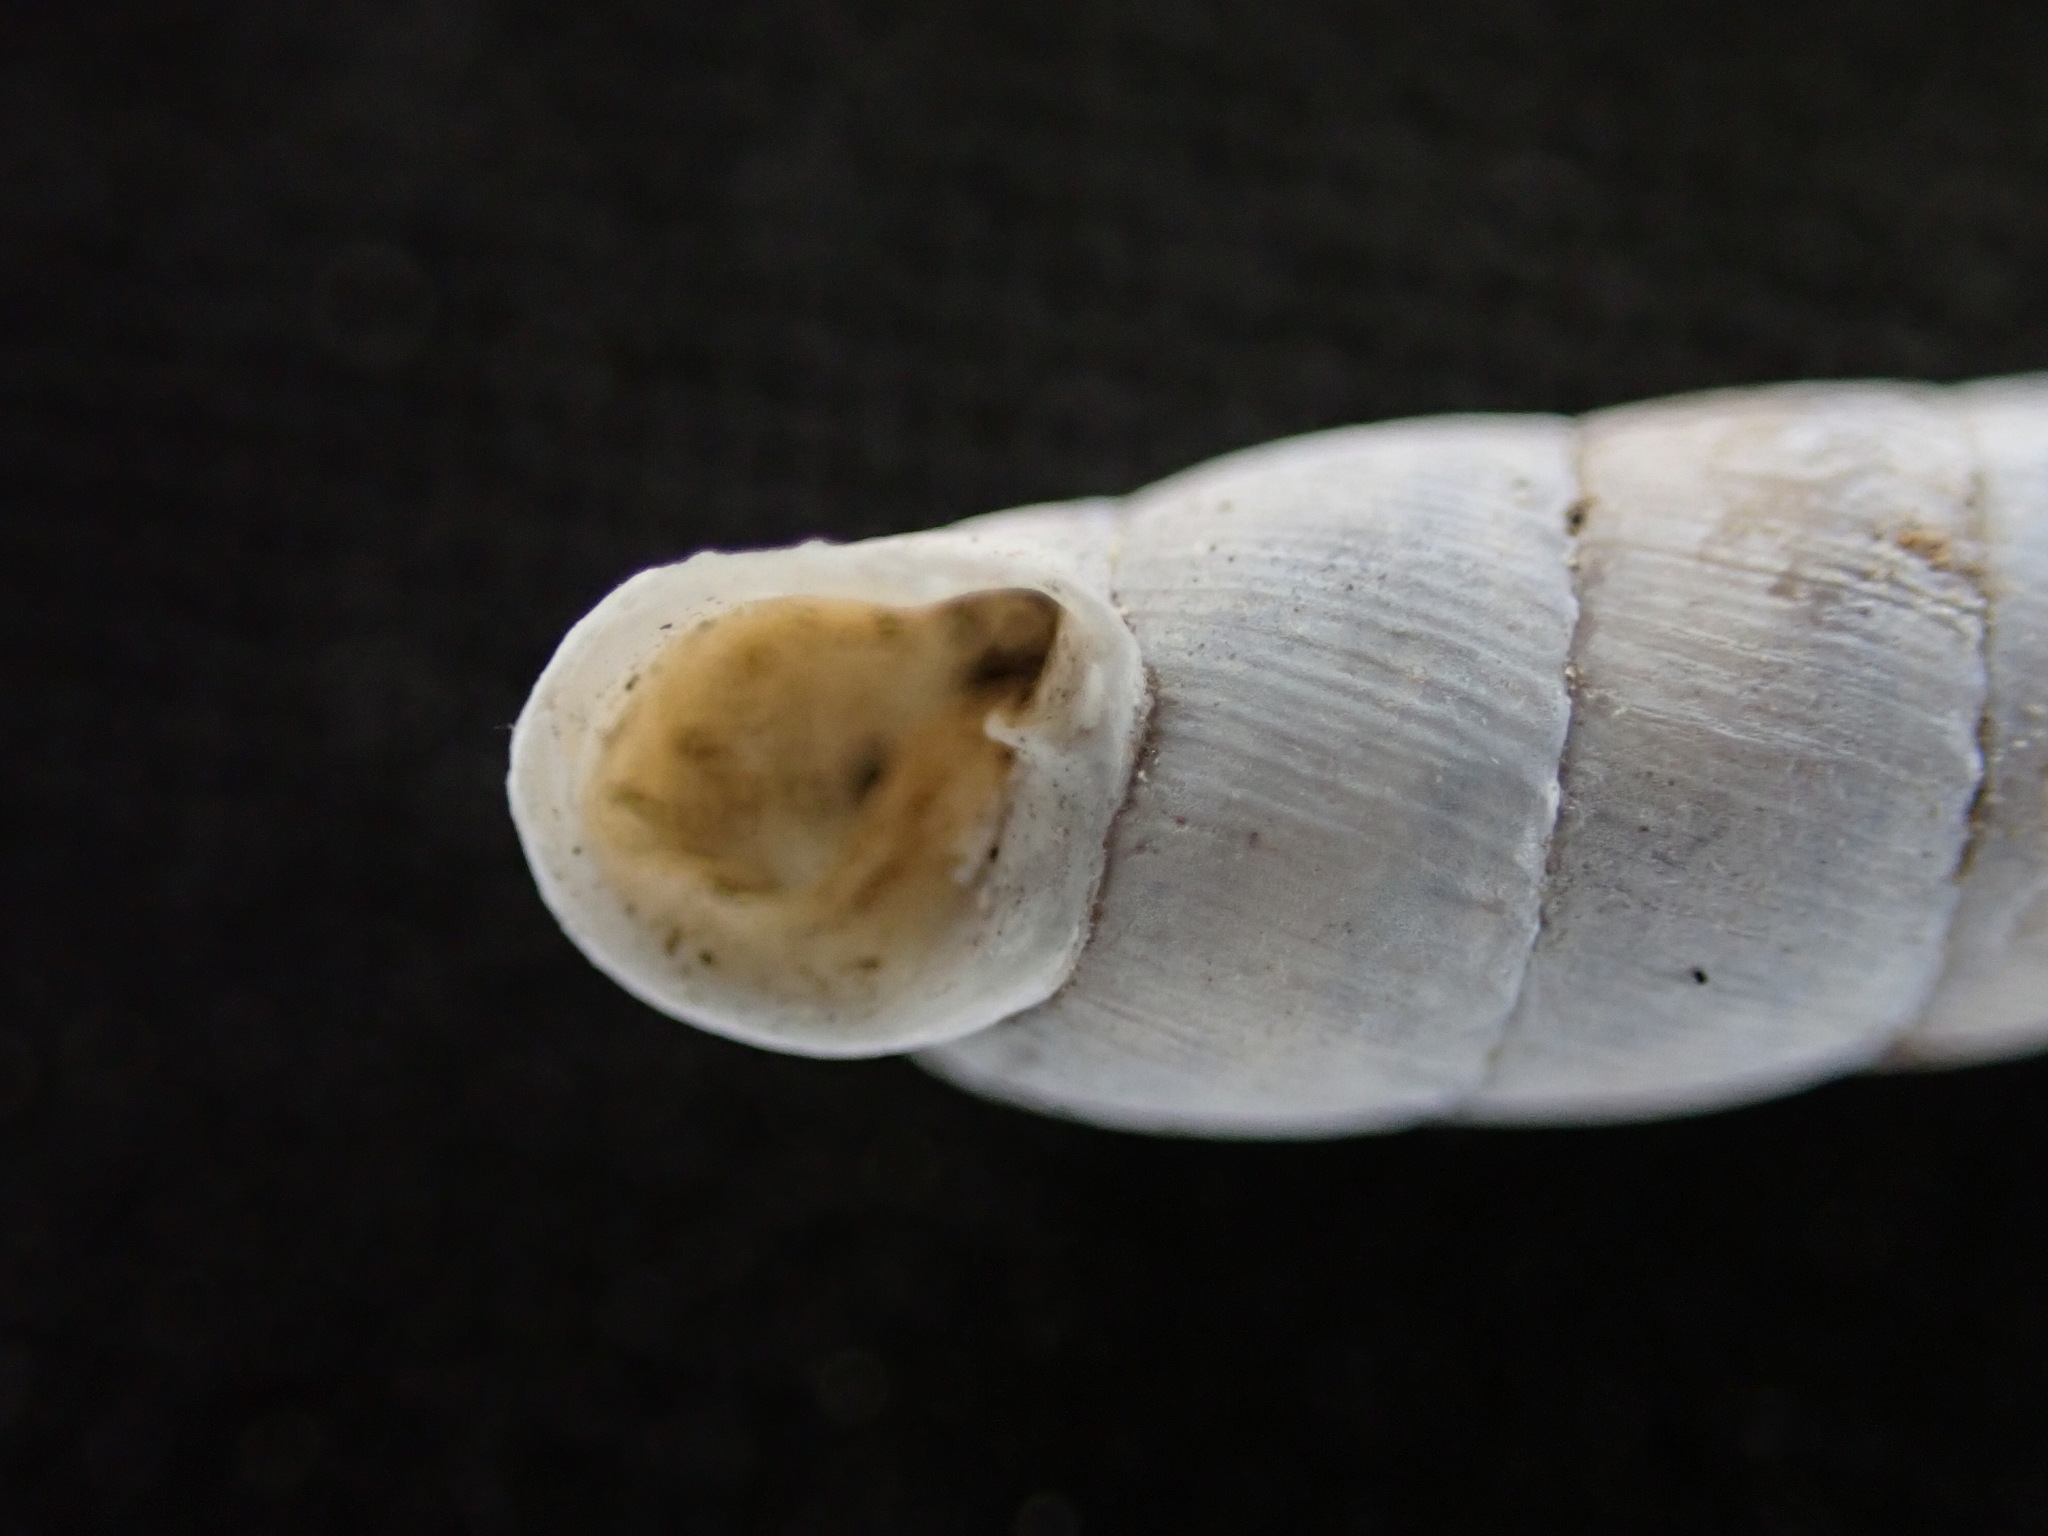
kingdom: Animalia
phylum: Mollusca
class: Gastropoda
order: Stylommatophora
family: Clausiliidae
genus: Papillifera
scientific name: Papillifera solida
